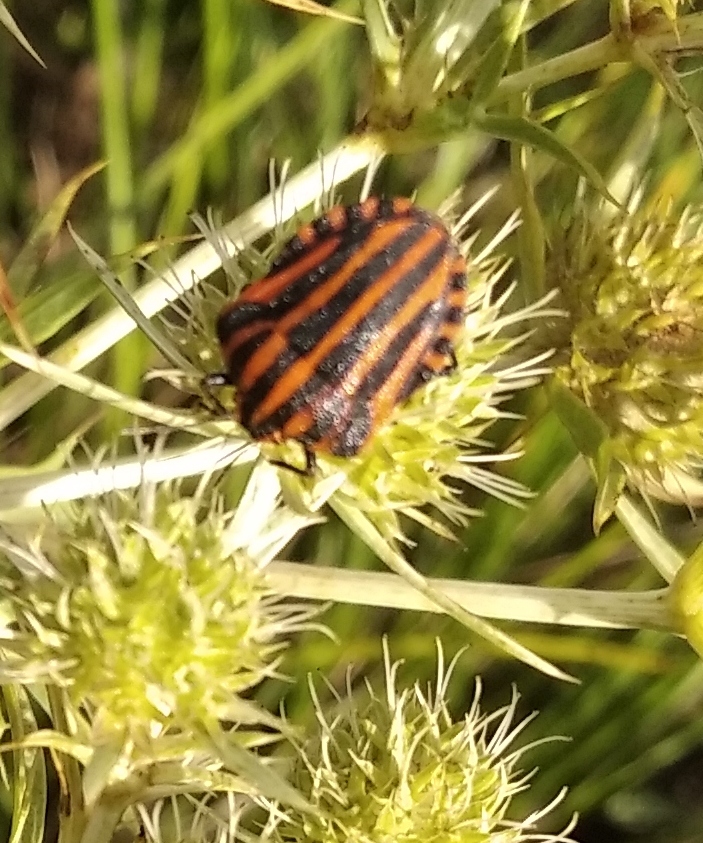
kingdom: Animalia
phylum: Arthropoda
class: Insecta
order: Hemiptera
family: Pentatomidae
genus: Graphosoma
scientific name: Graphosoma italicum
